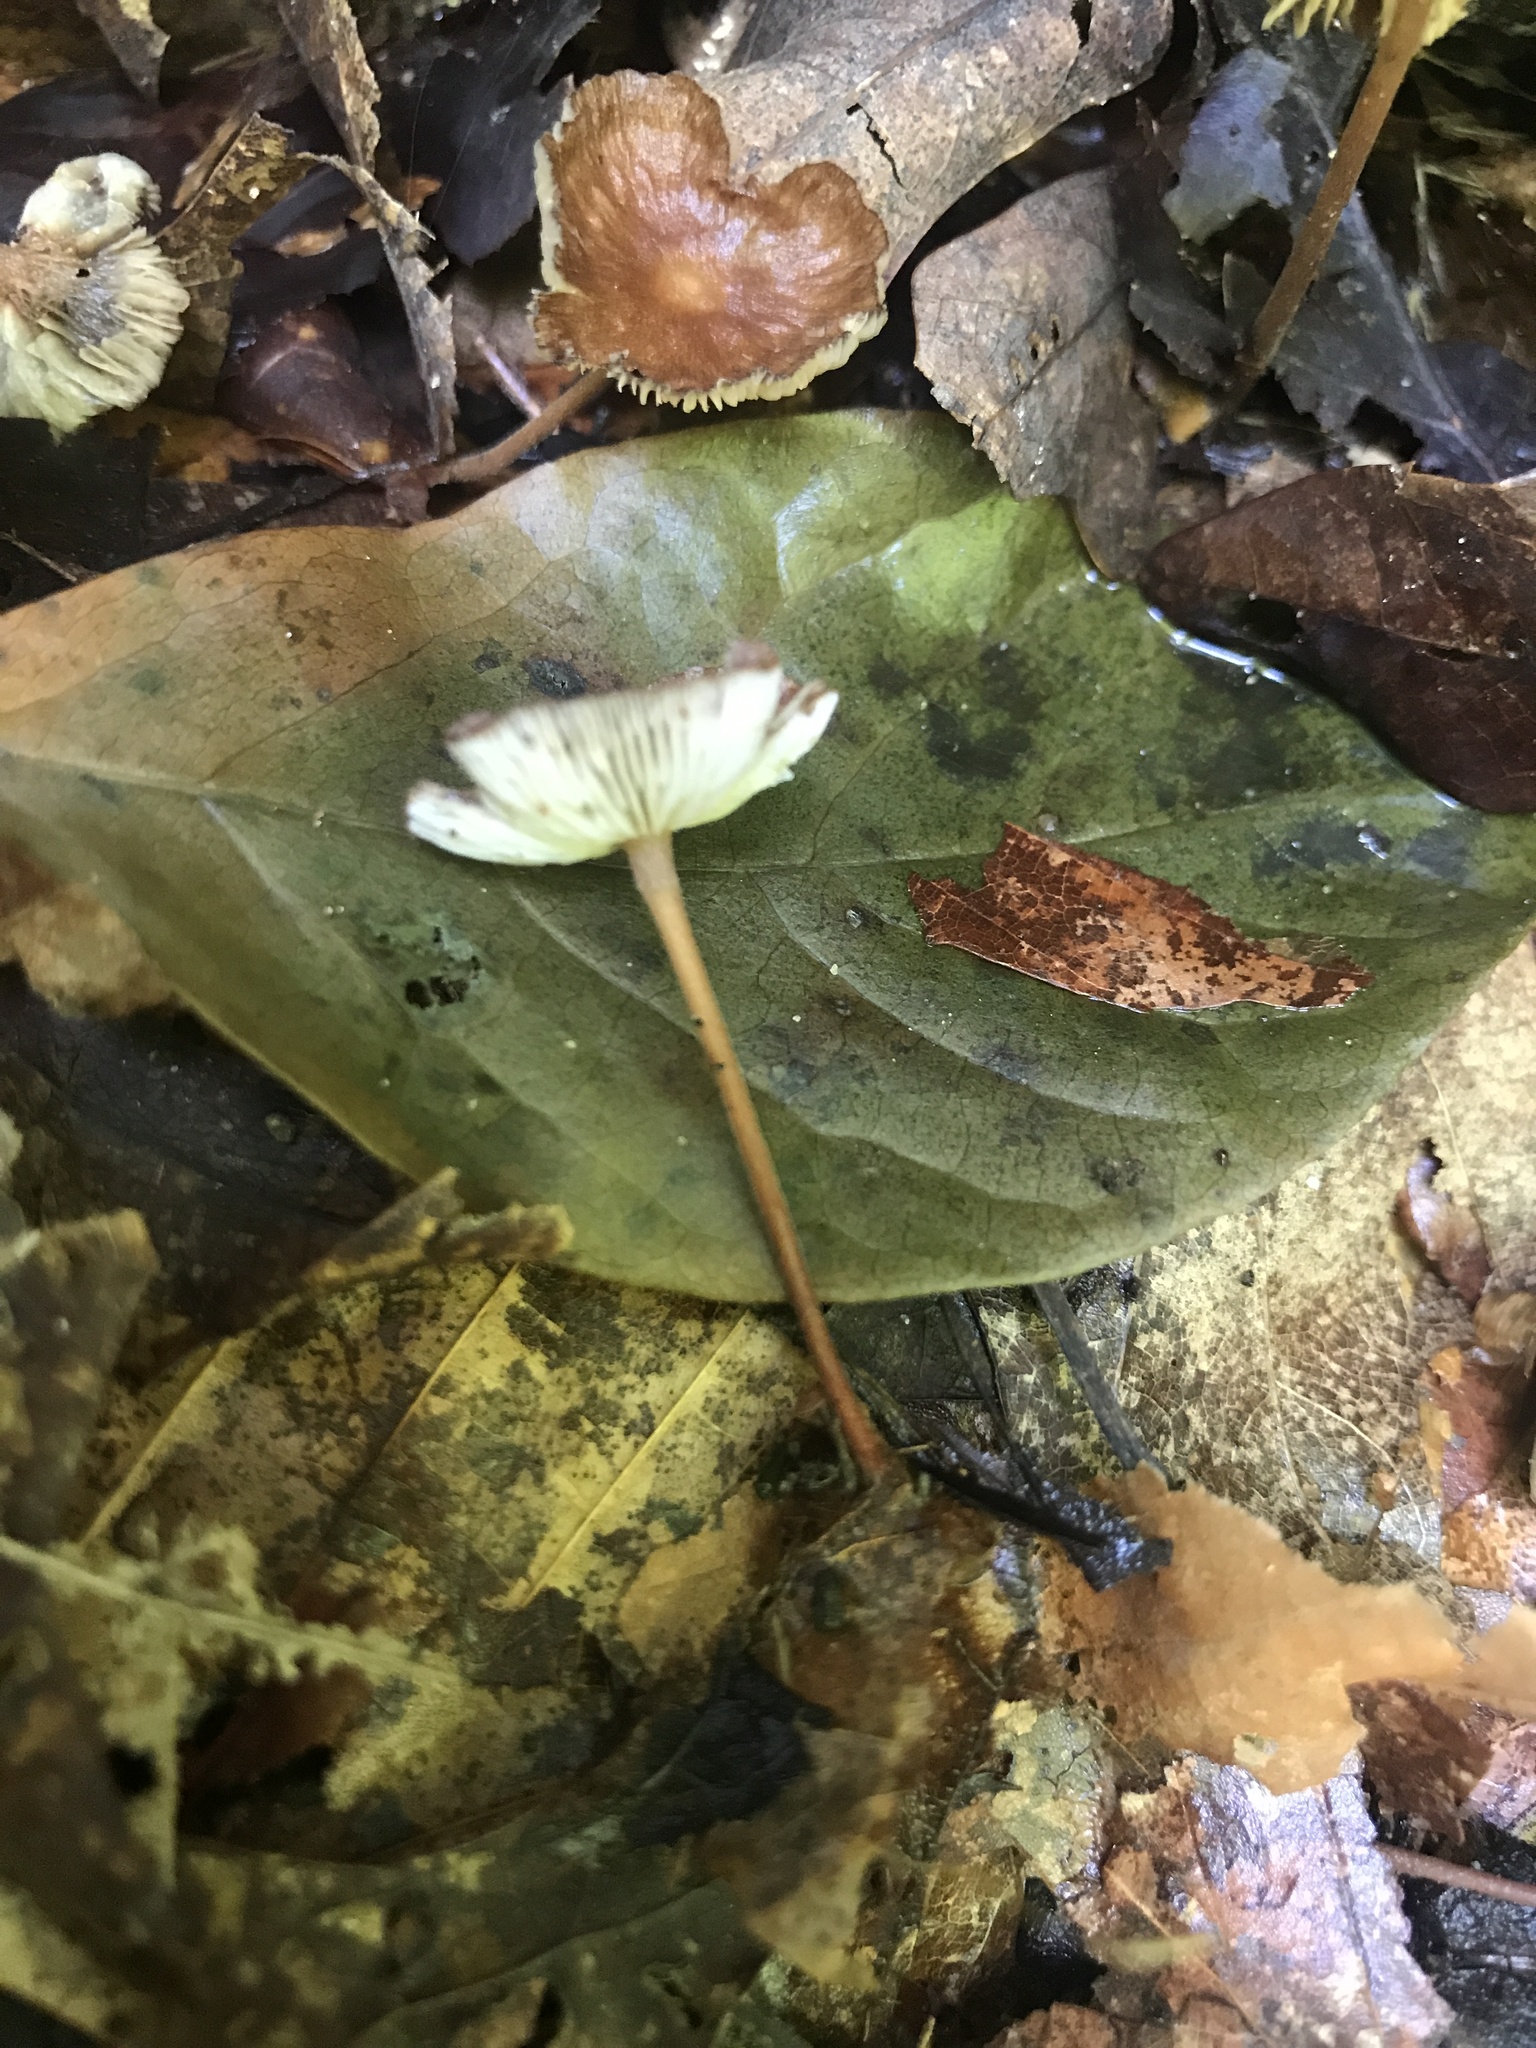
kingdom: Fungi
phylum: Basidiomycota
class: Agaricomycetes
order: Agaricales
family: Omphalotaceae
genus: Collybiopsis
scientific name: Collybiopsis subnuda
